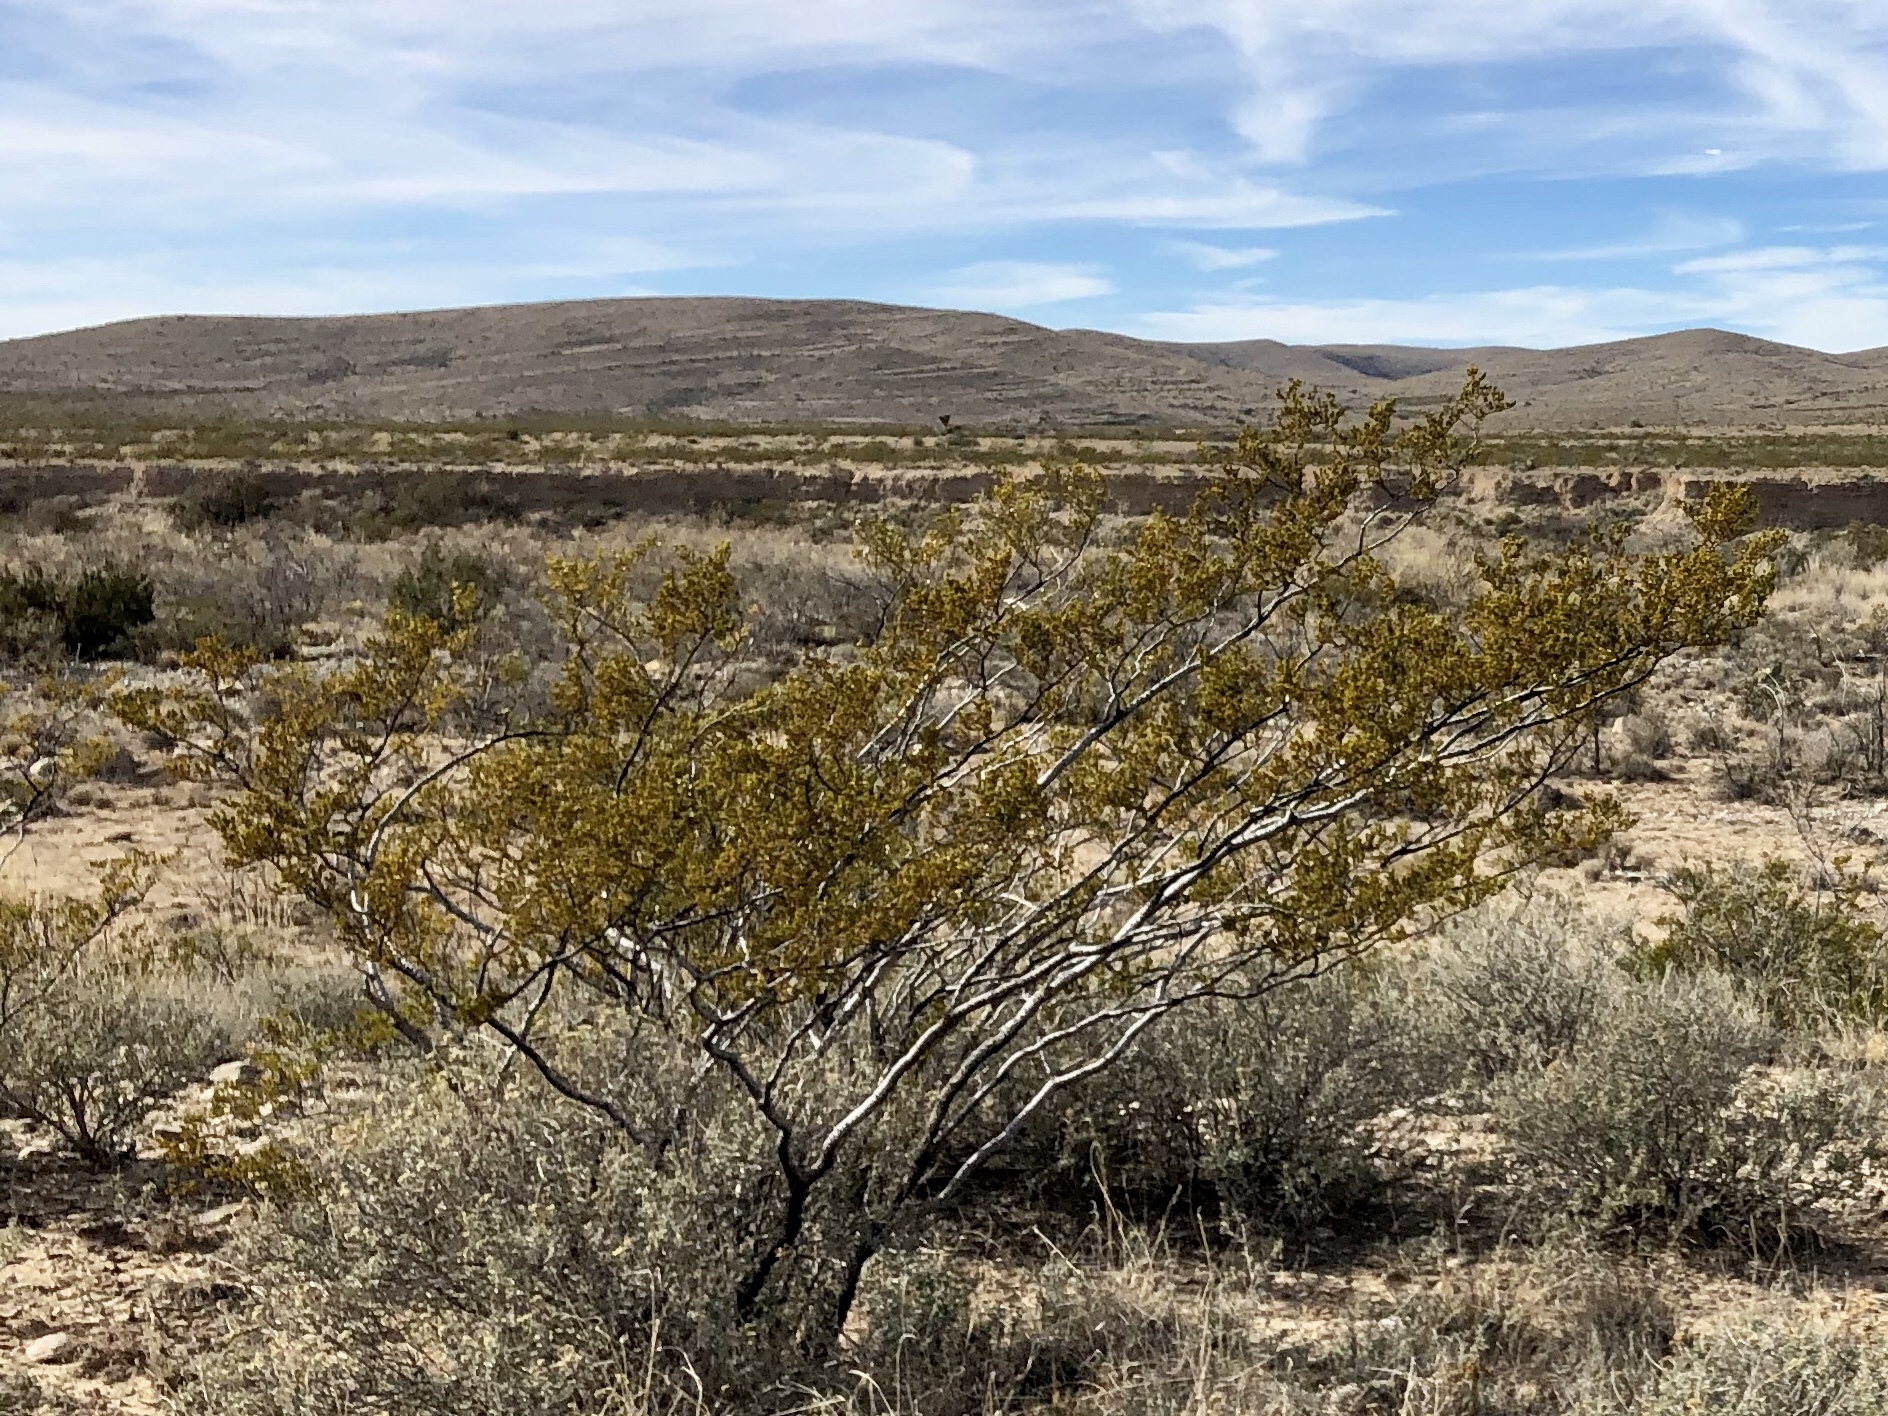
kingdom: Plantae
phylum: Tracheophyta
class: Magnoliopsida
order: Zygophyllales
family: Zygophyllaceae
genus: Larrea
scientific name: Larrea tridentata
